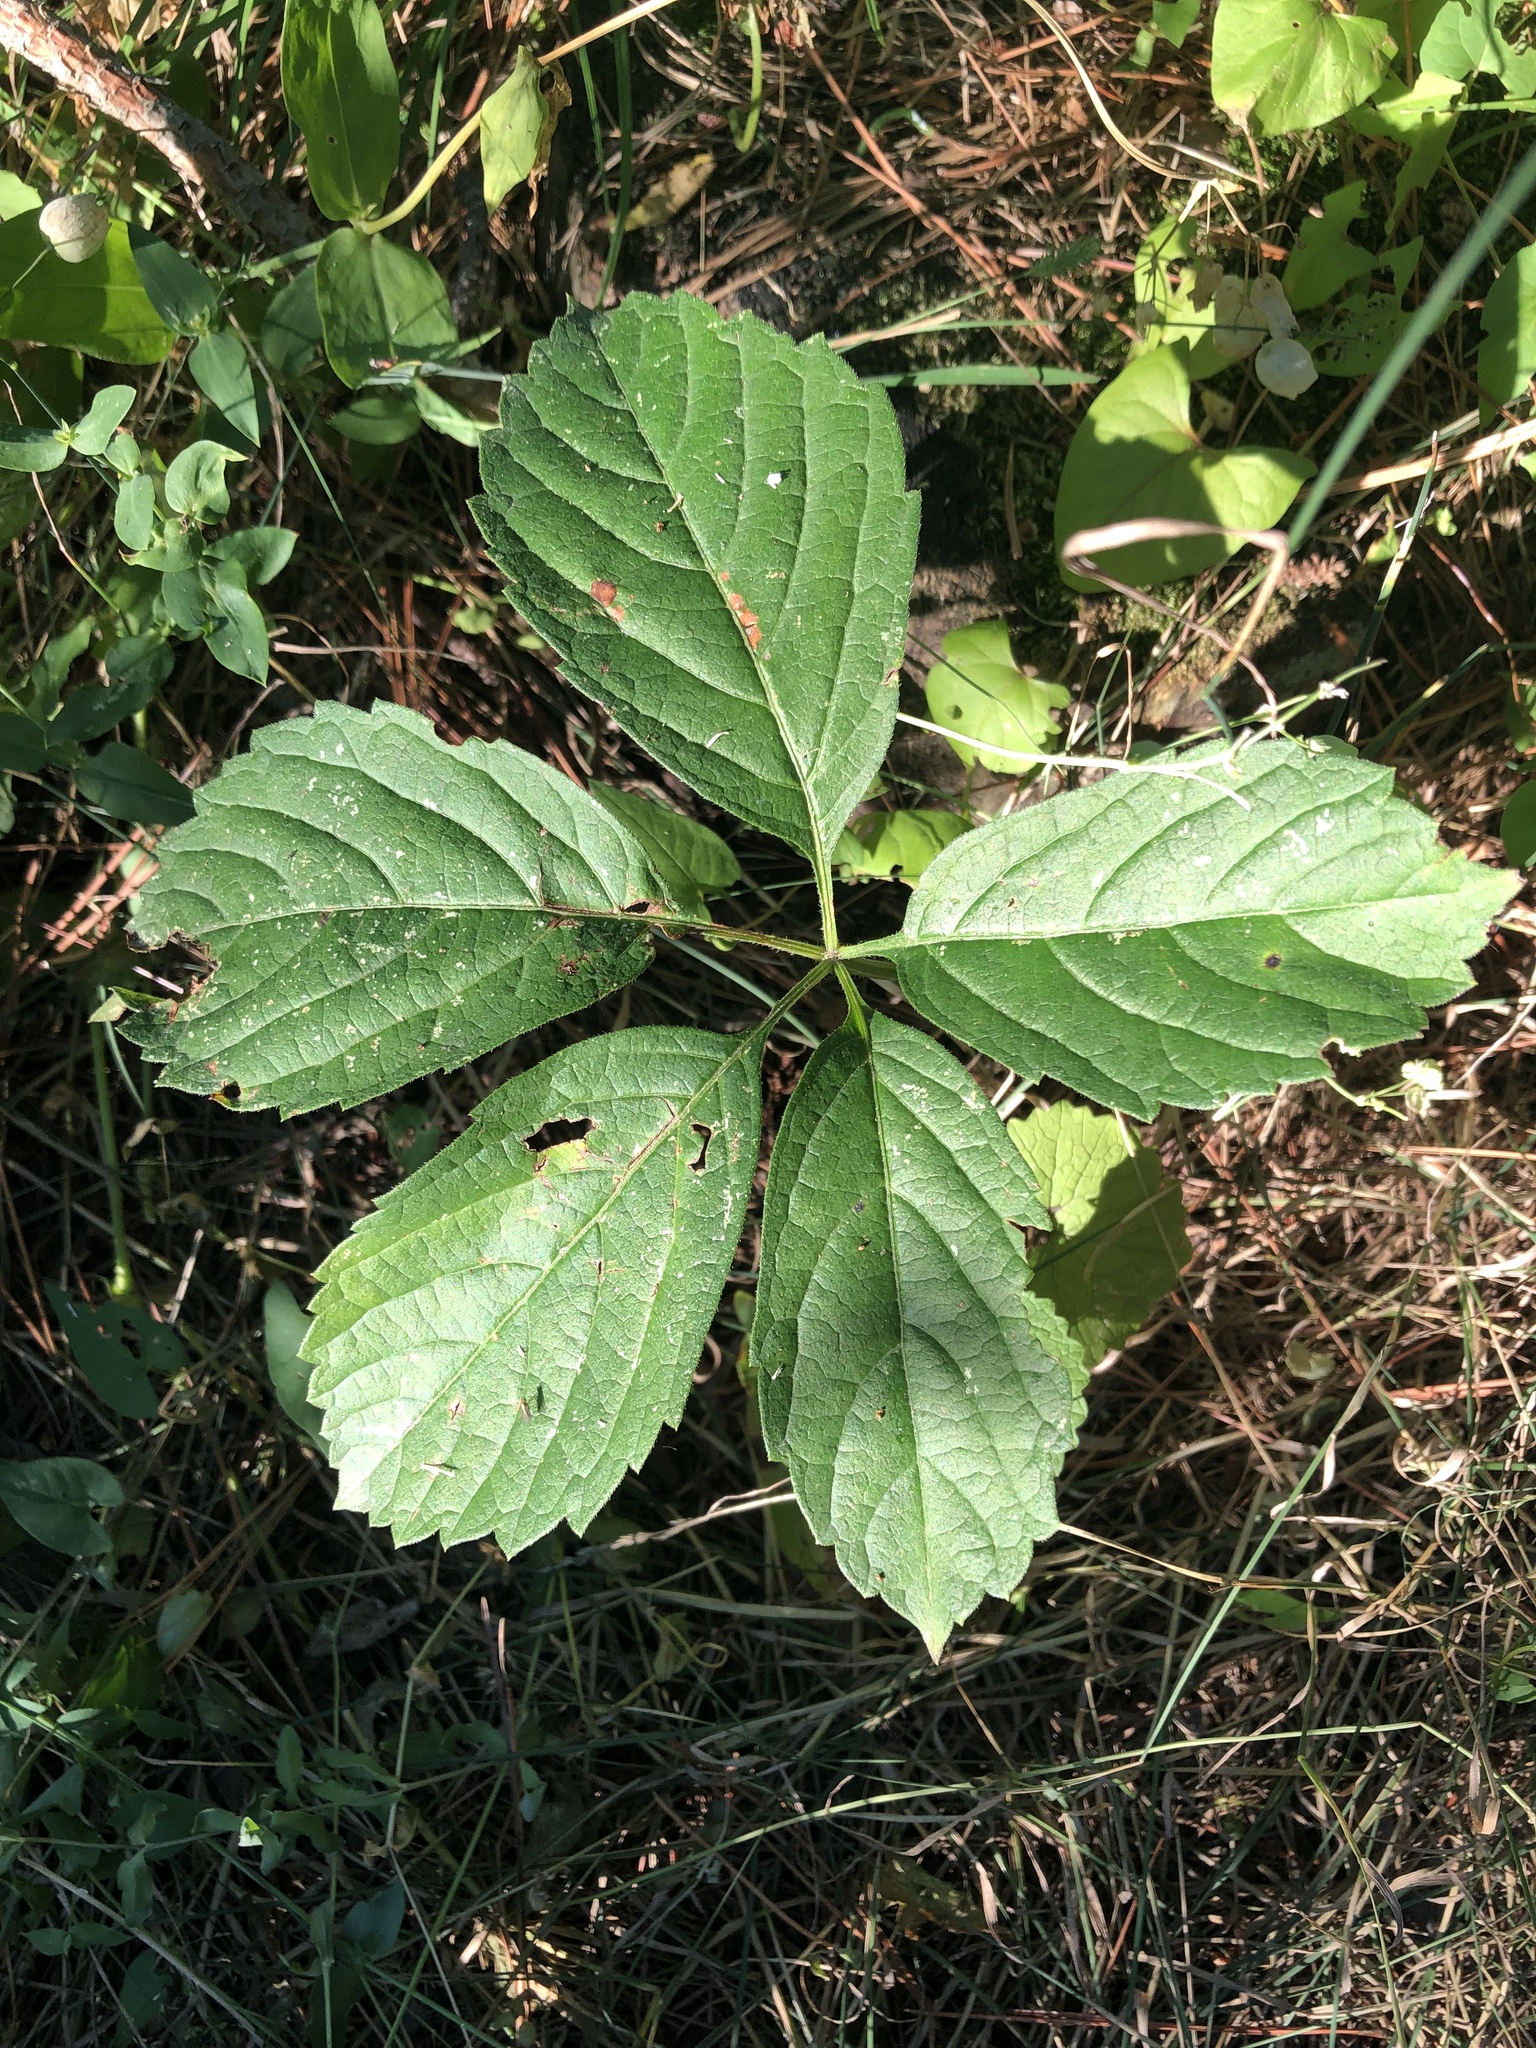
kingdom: Plantae
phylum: Tracheophyta
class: Magnoliopsida
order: Vitales
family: Vitaceae
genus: Parthenocissus
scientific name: Parthenocissus inserta
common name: False virginia-creeper
